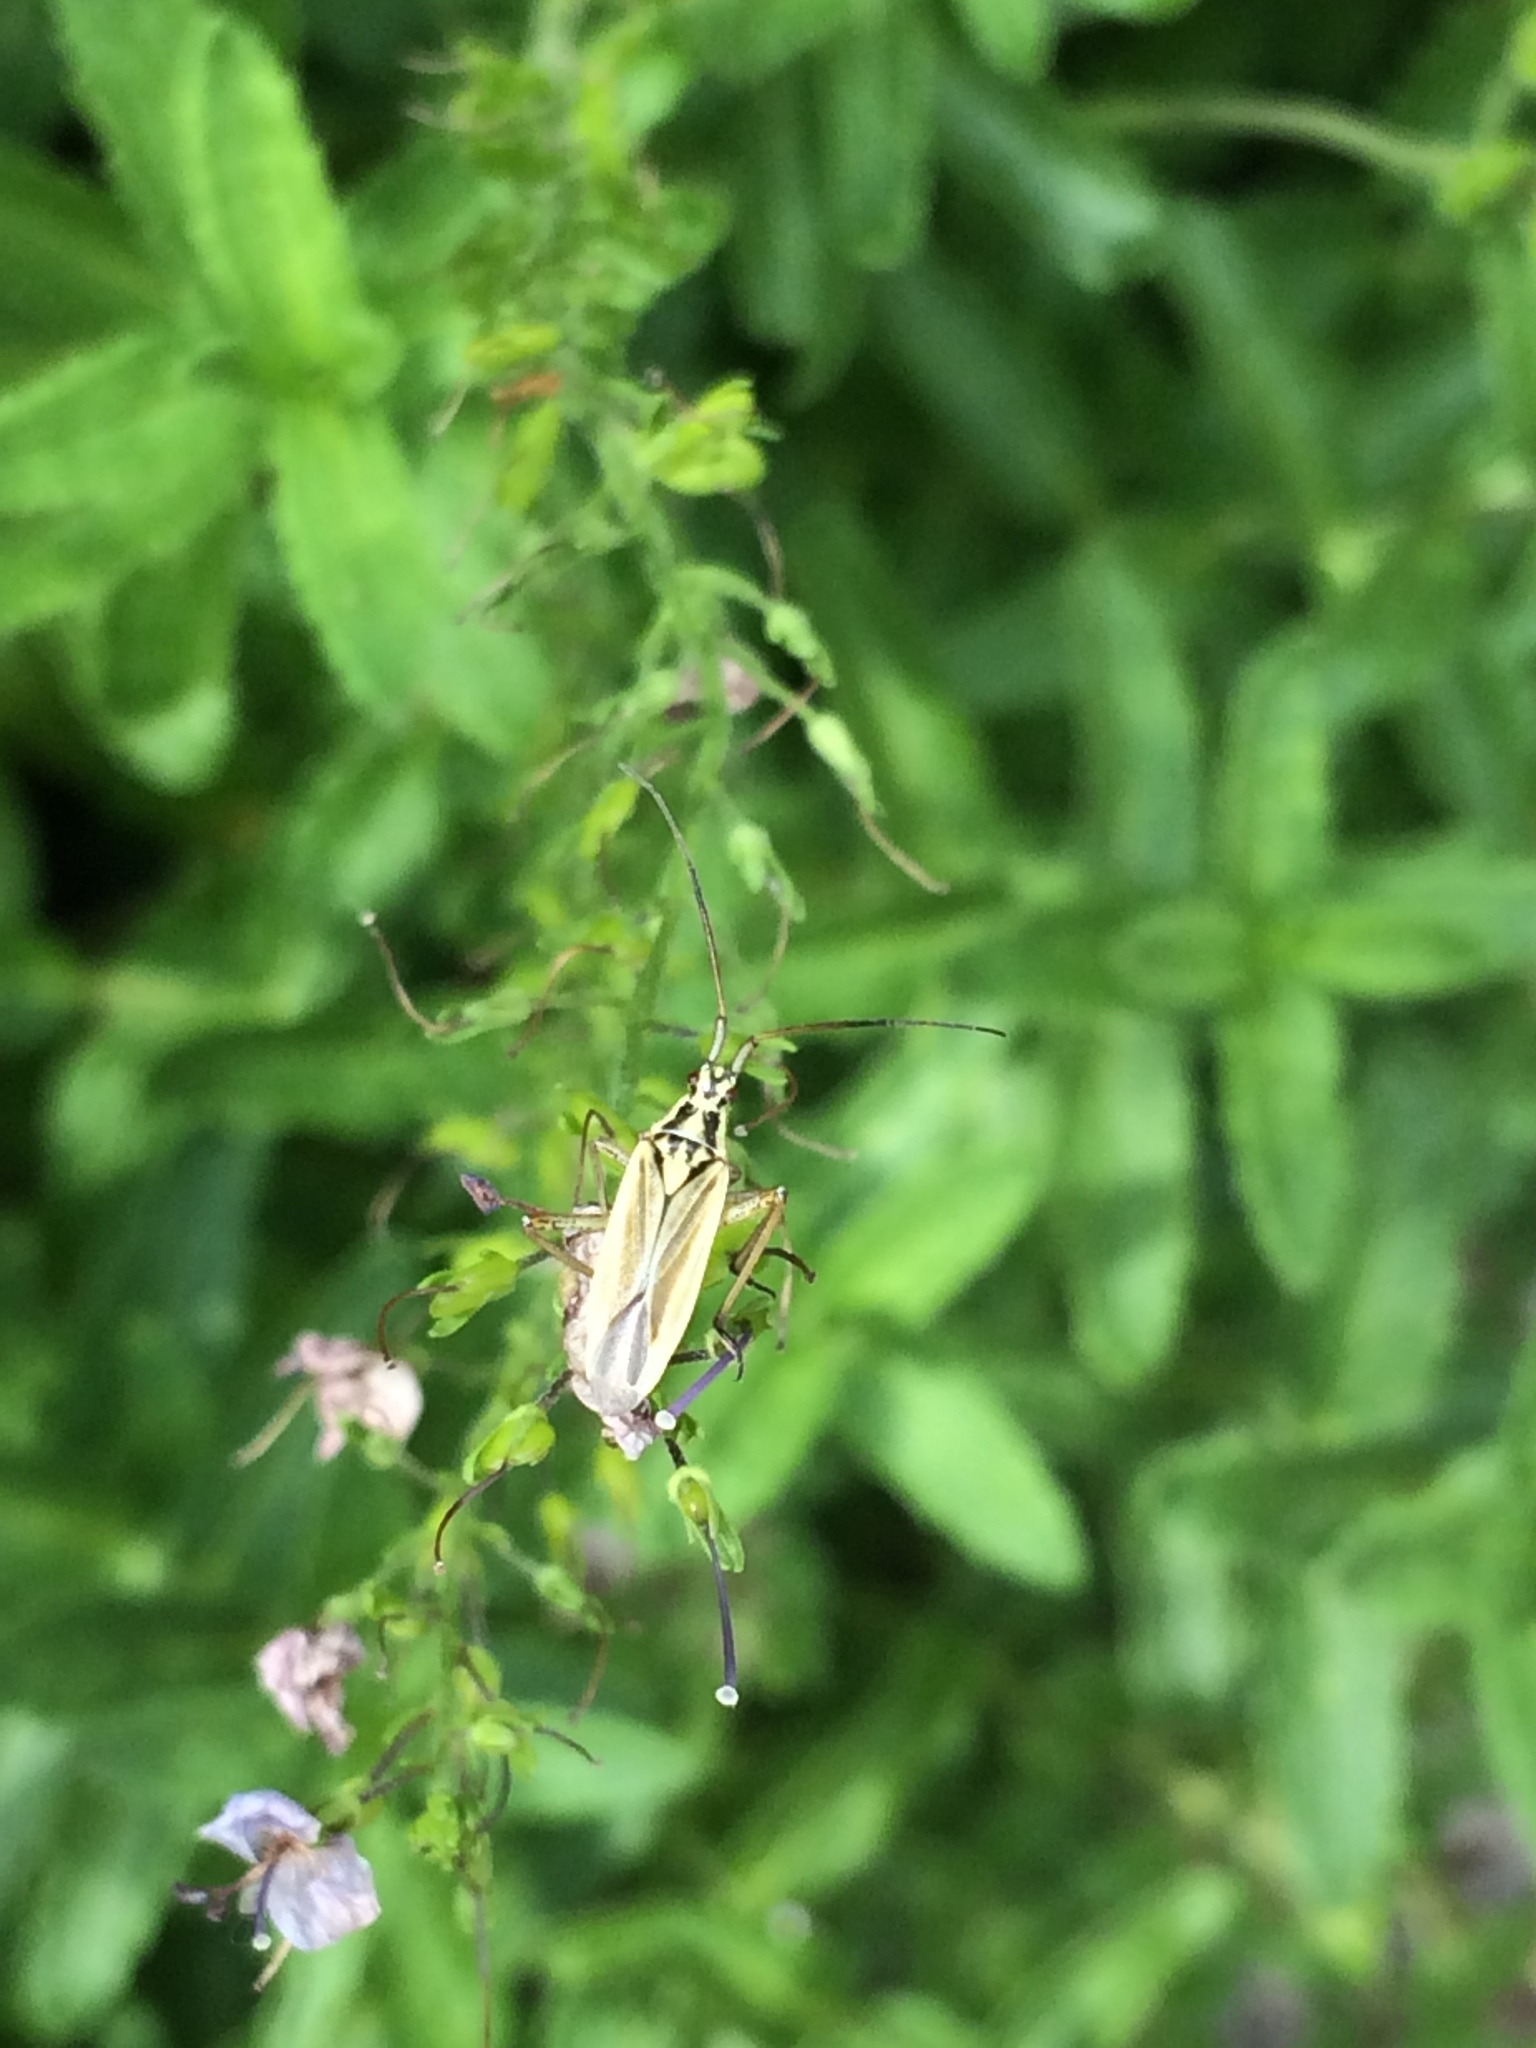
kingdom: Animalia
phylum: Arthropoda
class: Insecta
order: Hemiptera
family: Miridae
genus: Leptopterna
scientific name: Leptopterna dolabrata
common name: Meadow plant bug
